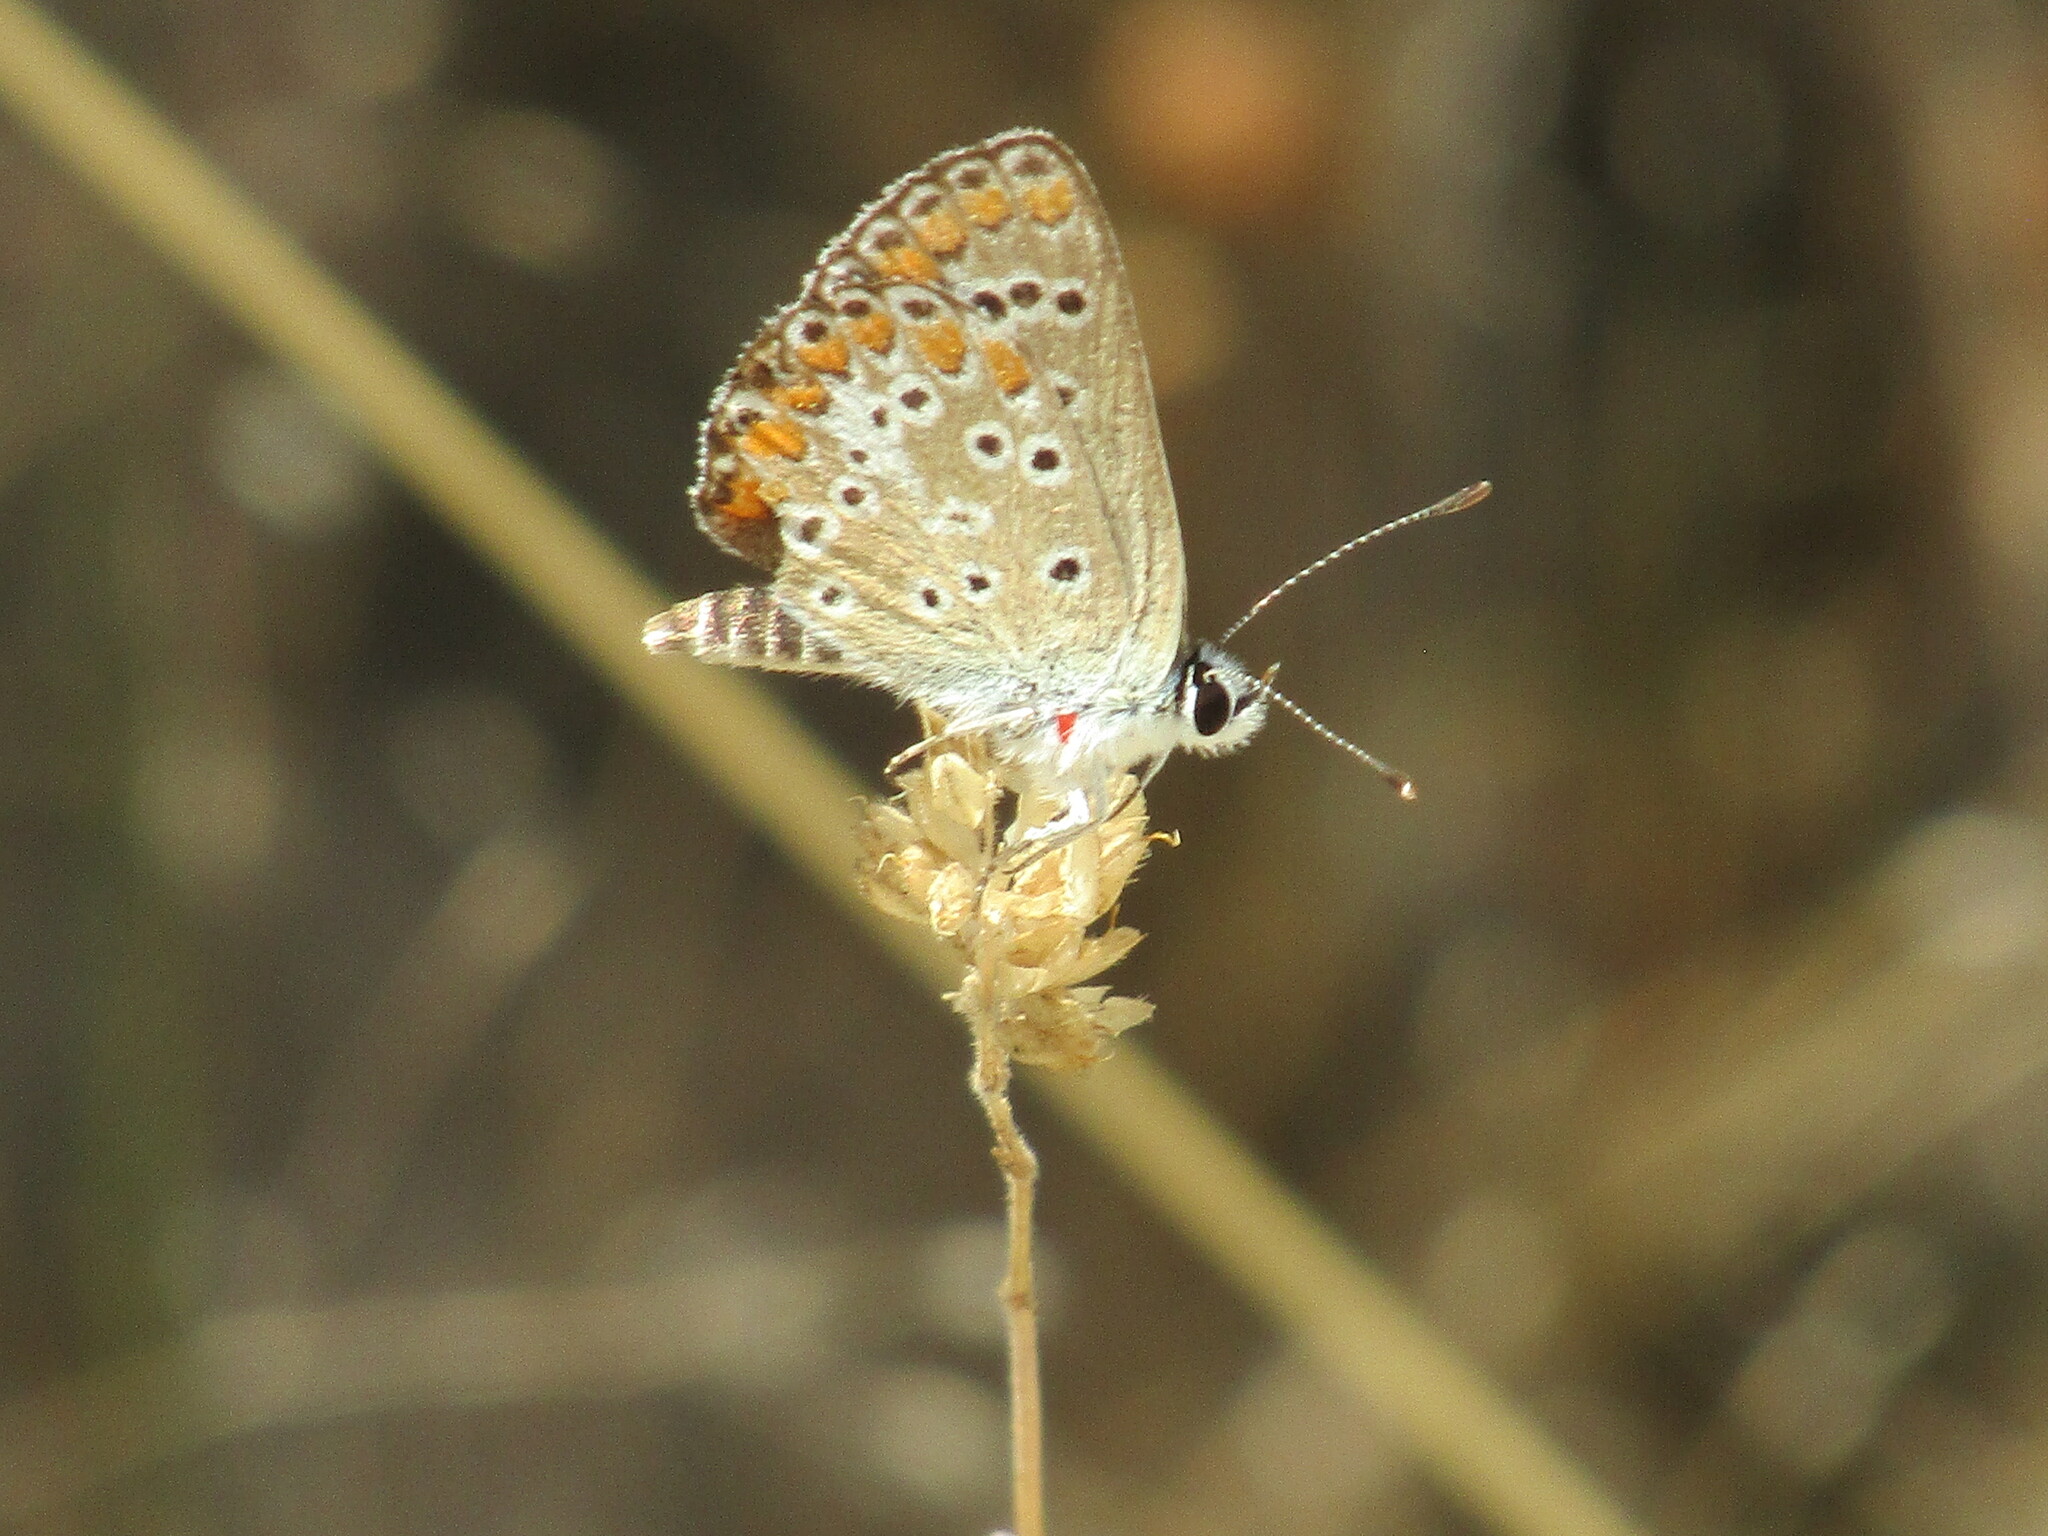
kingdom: Animalia
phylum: Arthropoda
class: Insecta
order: Lepidoptera
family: Lycaenidae
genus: Aricia
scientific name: Aricia agestis
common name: Brown argus
